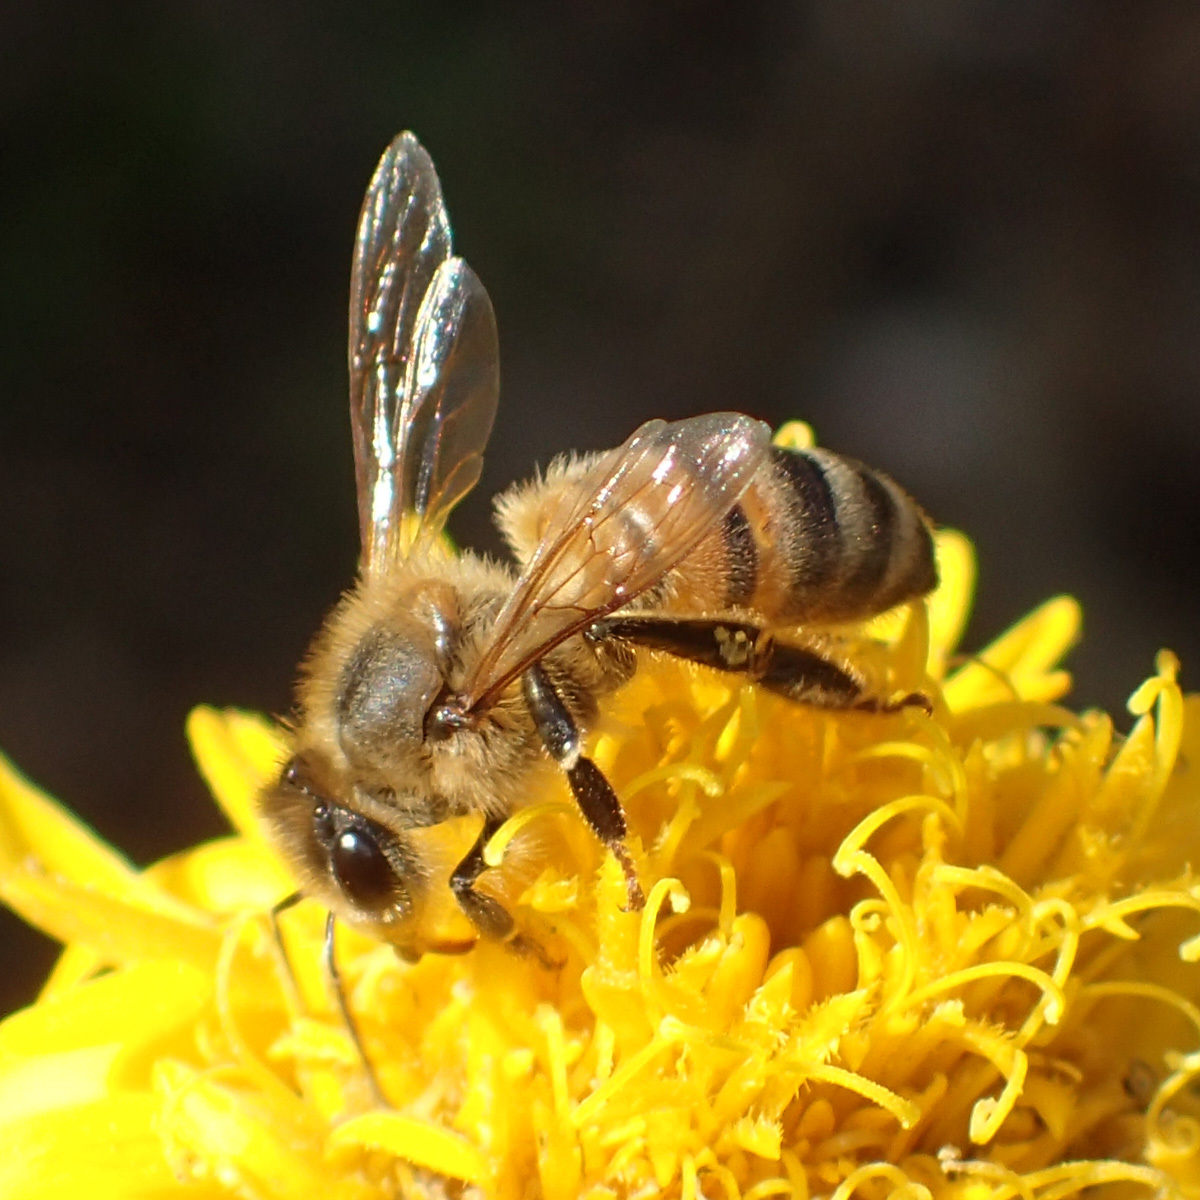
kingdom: Animalia
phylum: Arthropoda
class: Insecta
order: Hymenoptera
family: Apidae
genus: Apis
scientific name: Apis mellifera
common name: Honey bee
